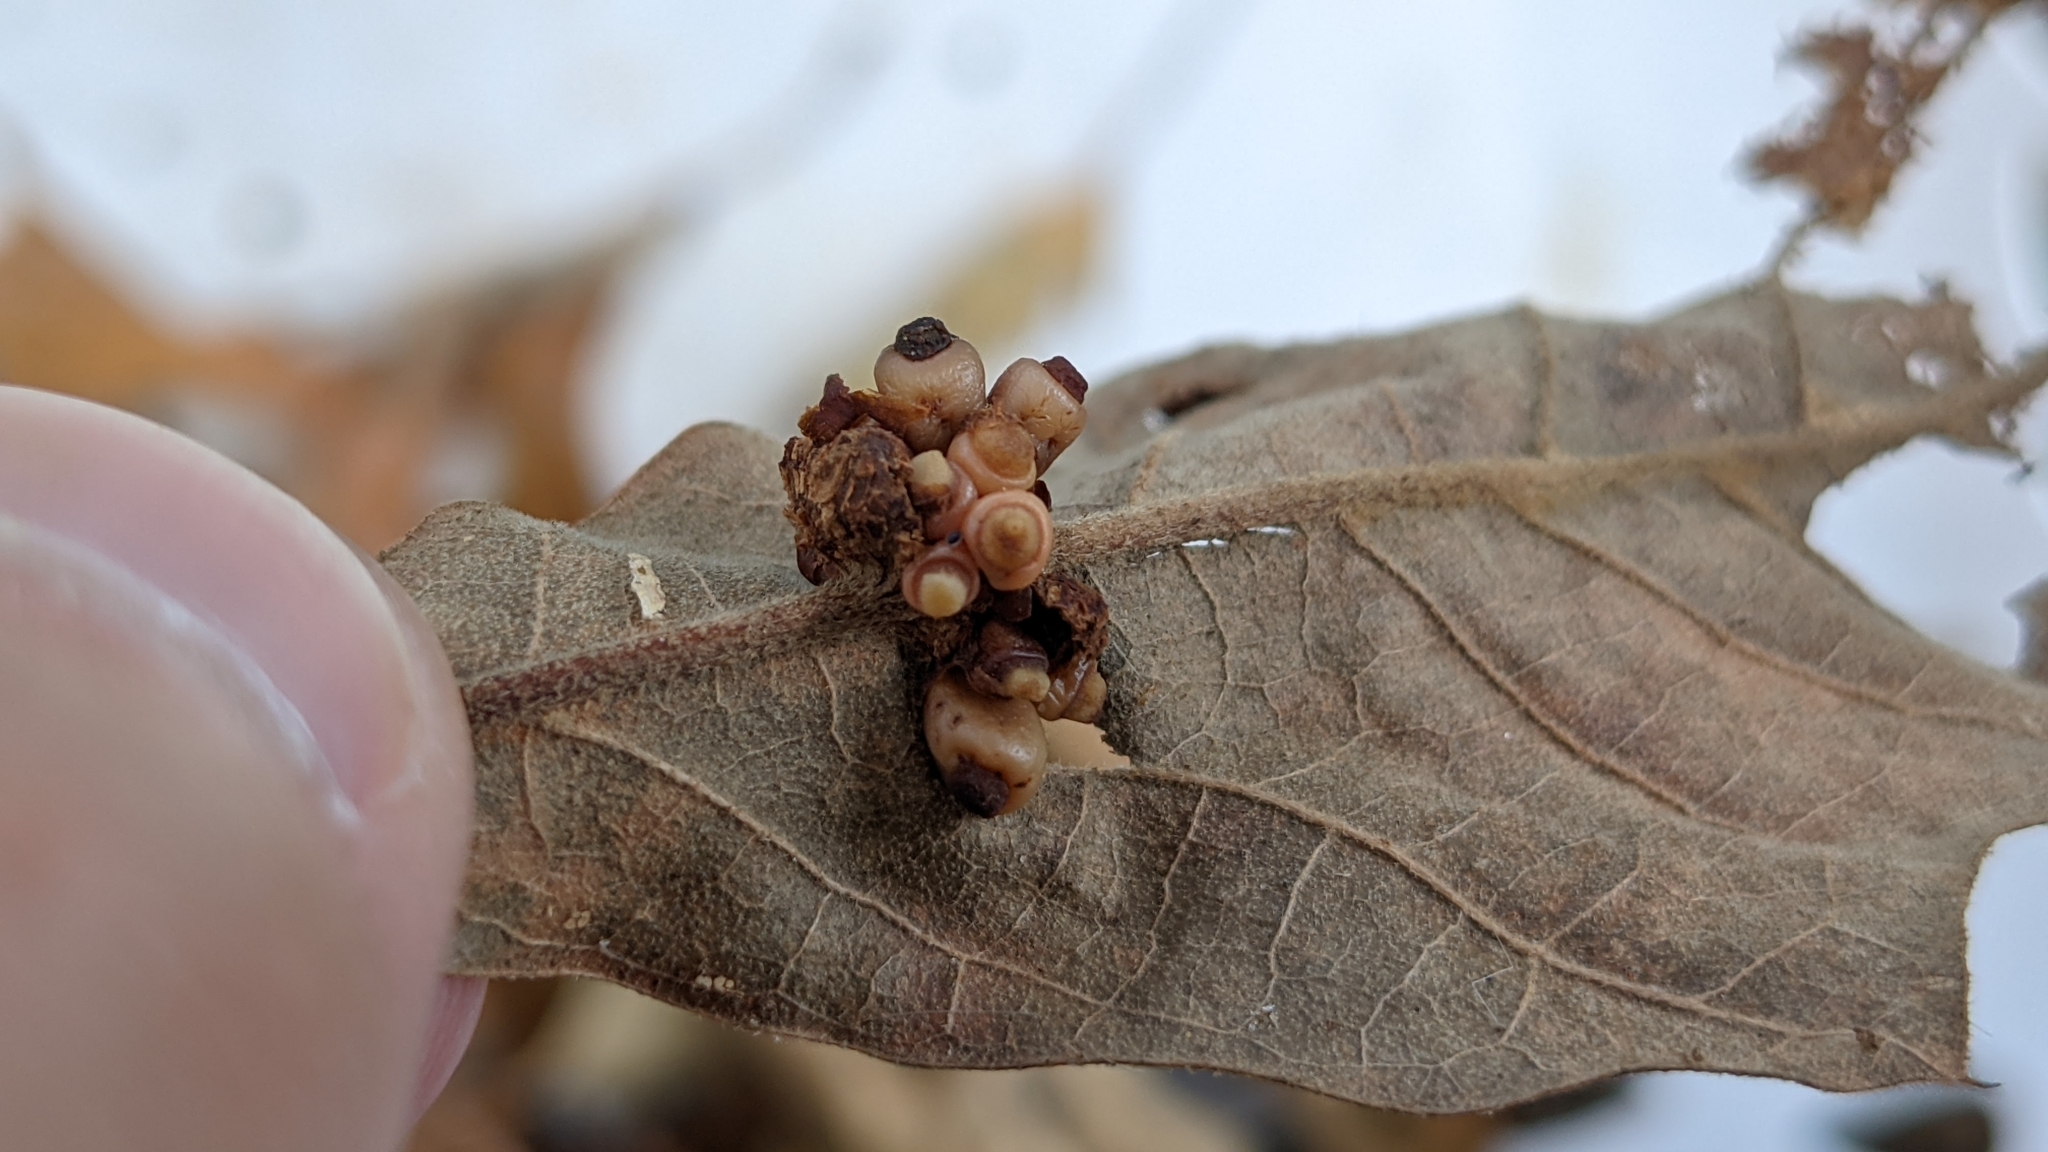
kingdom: Animalia
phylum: Arthropoda
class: Insecta
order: Hymenoptera
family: Cynipidae
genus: Kokkocynips
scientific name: Kokkocynips decidua
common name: Oak wheat gall
